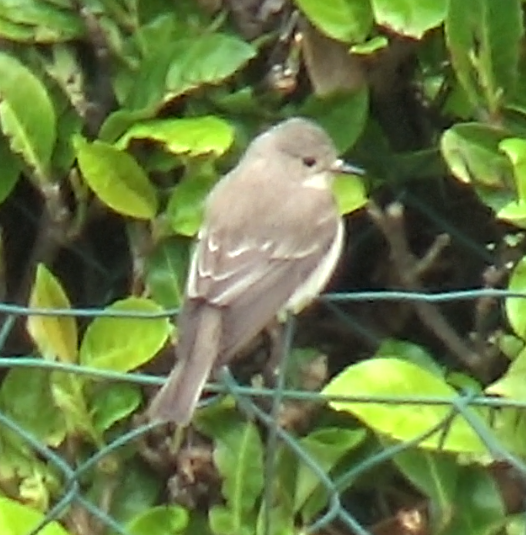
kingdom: Animalia
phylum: Chordata
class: Aves
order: Passeriformes
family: Muscicapidae
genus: Muscicapa
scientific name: Muscicapa striata
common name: Spotted flycatcher
